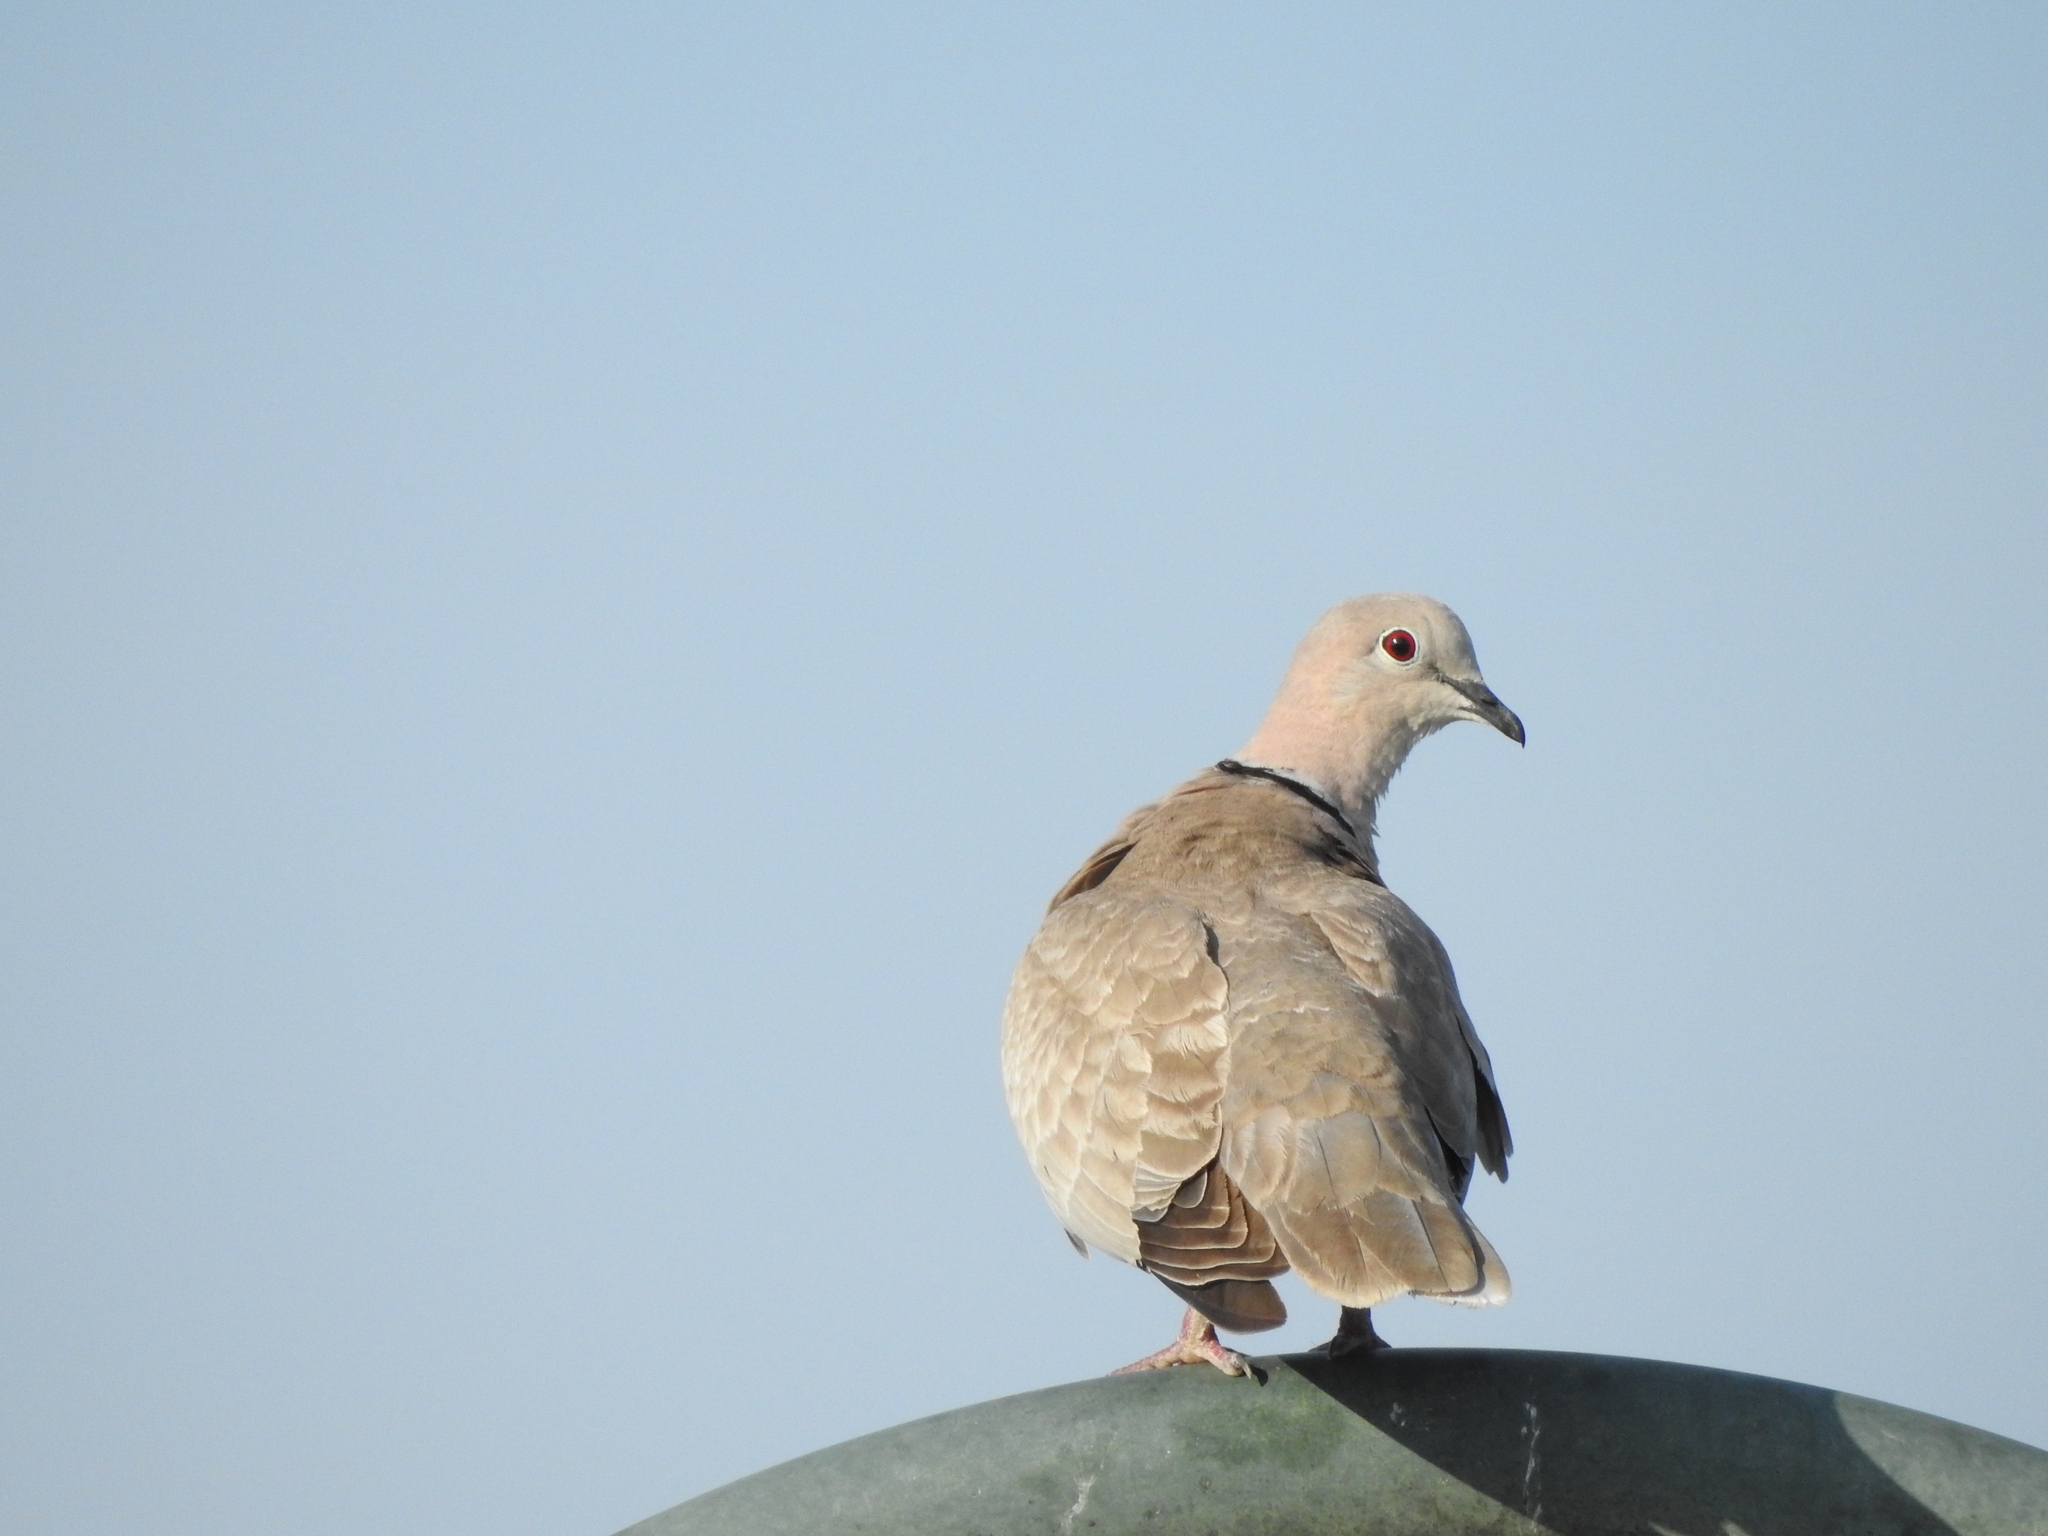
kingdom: Animalia
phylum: Chordata
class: Aves
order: Columbiformes
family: Columbidae
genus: Streptopelia
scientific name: Streptopelia decaocto
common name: Eurasian collared dove
